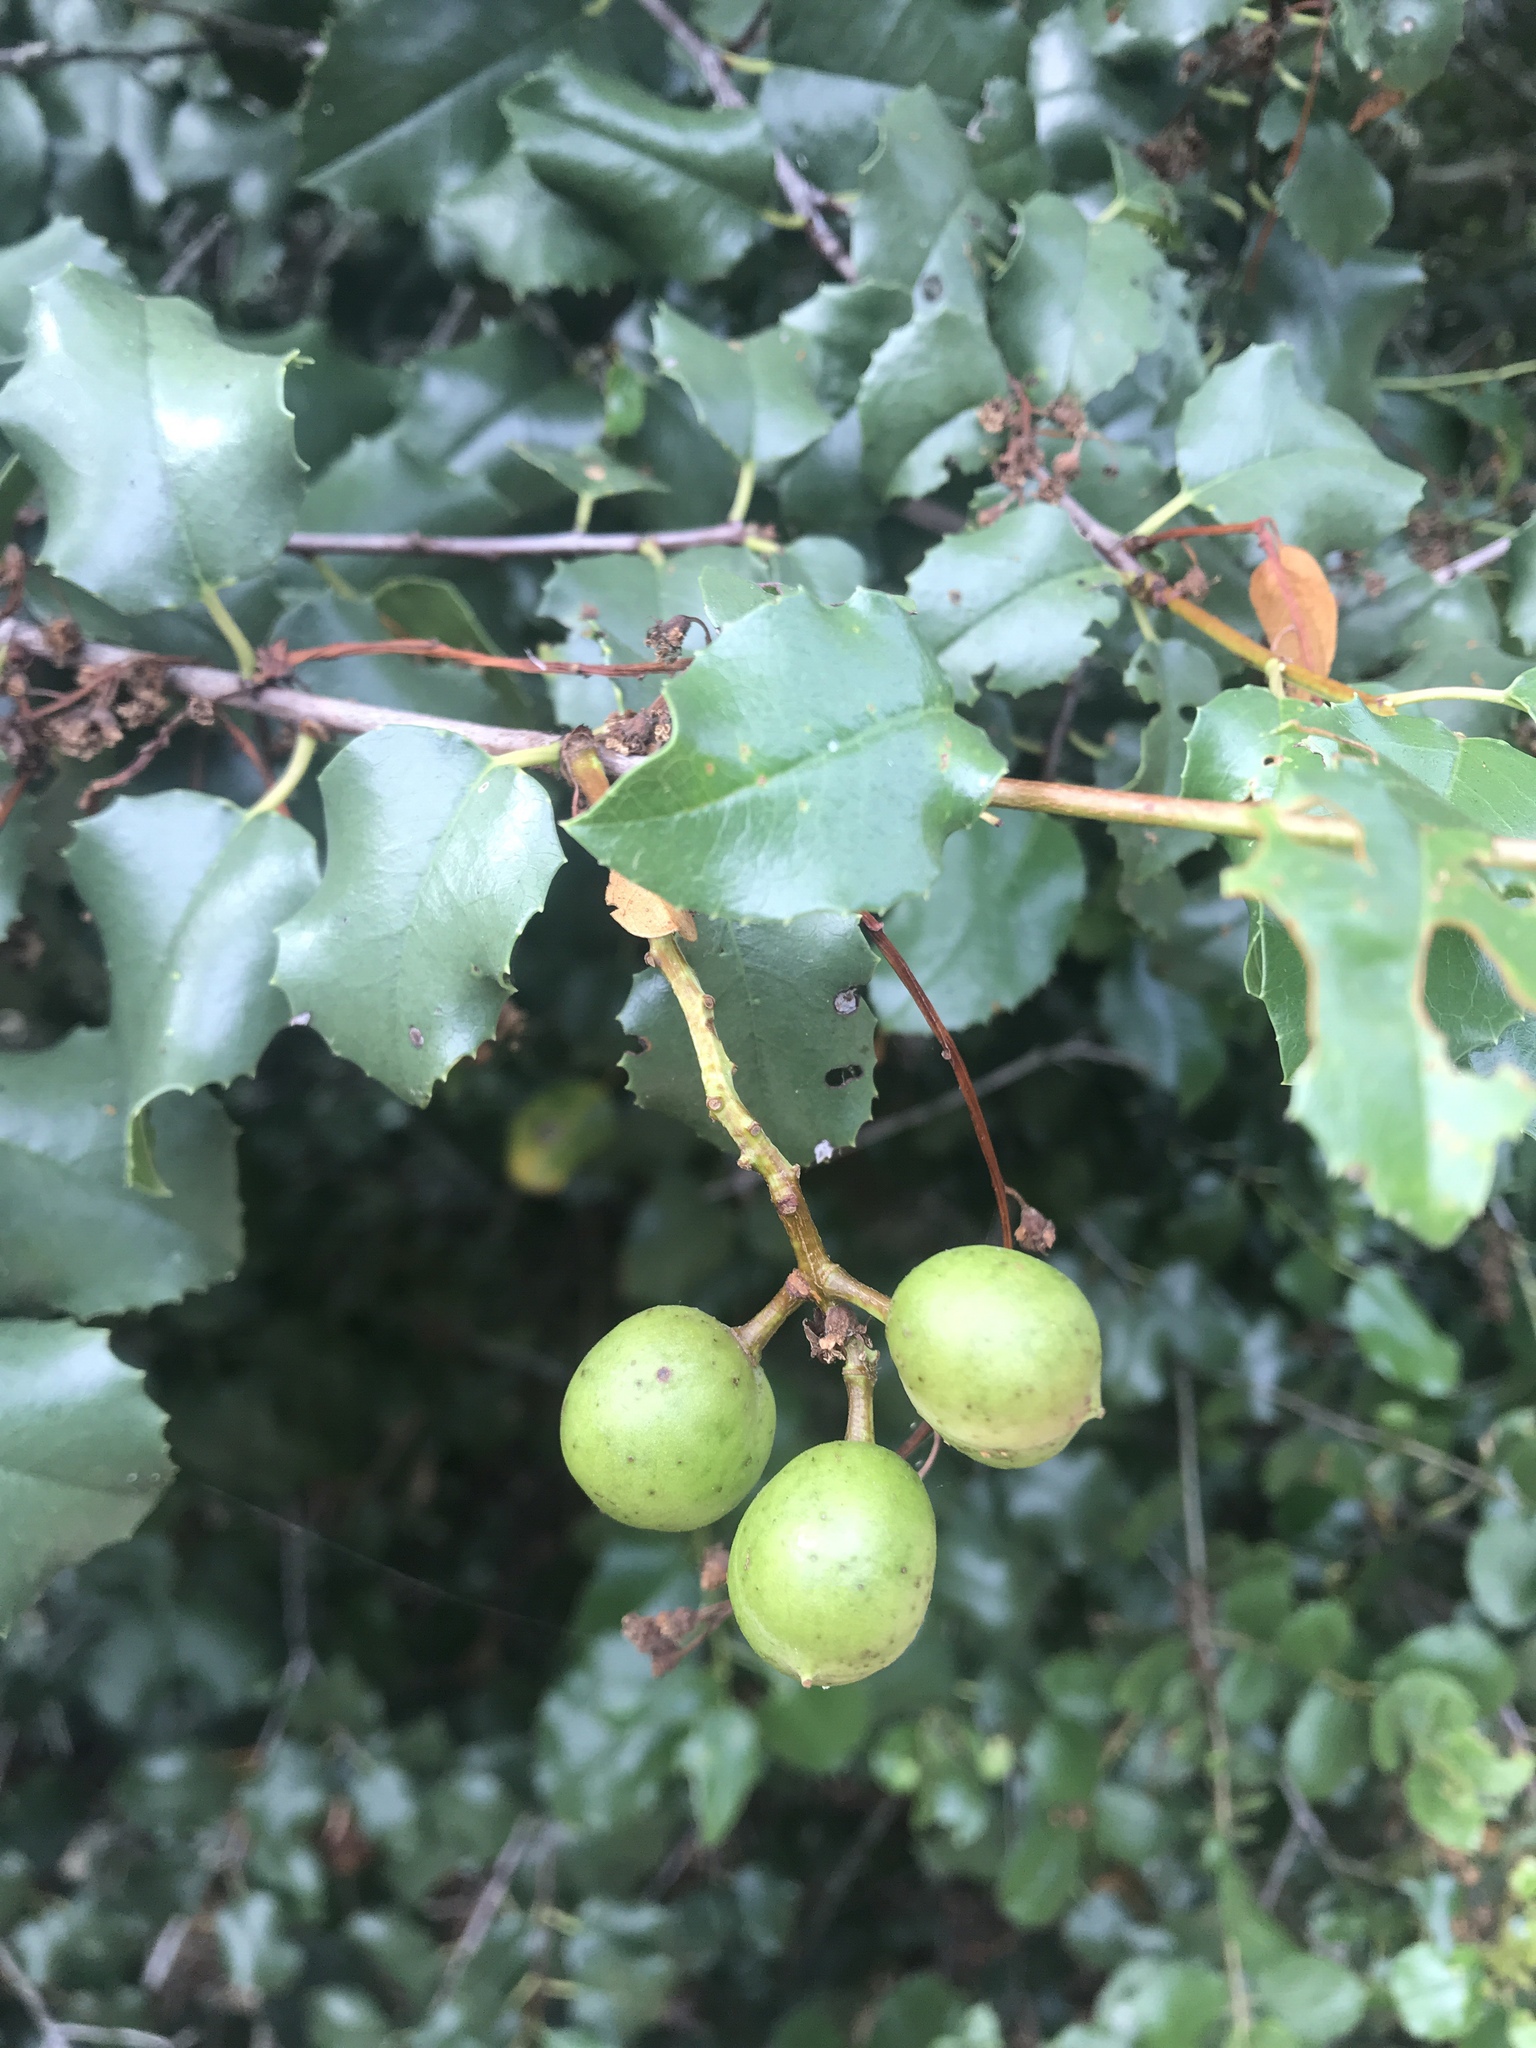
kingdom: Plantae
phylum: Tracheophyta
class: Magnoliopsida
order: Rosales
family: Rosaceae
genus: Prunus
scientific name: Prunus ilicifolia
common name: Hollyleaf cherry
